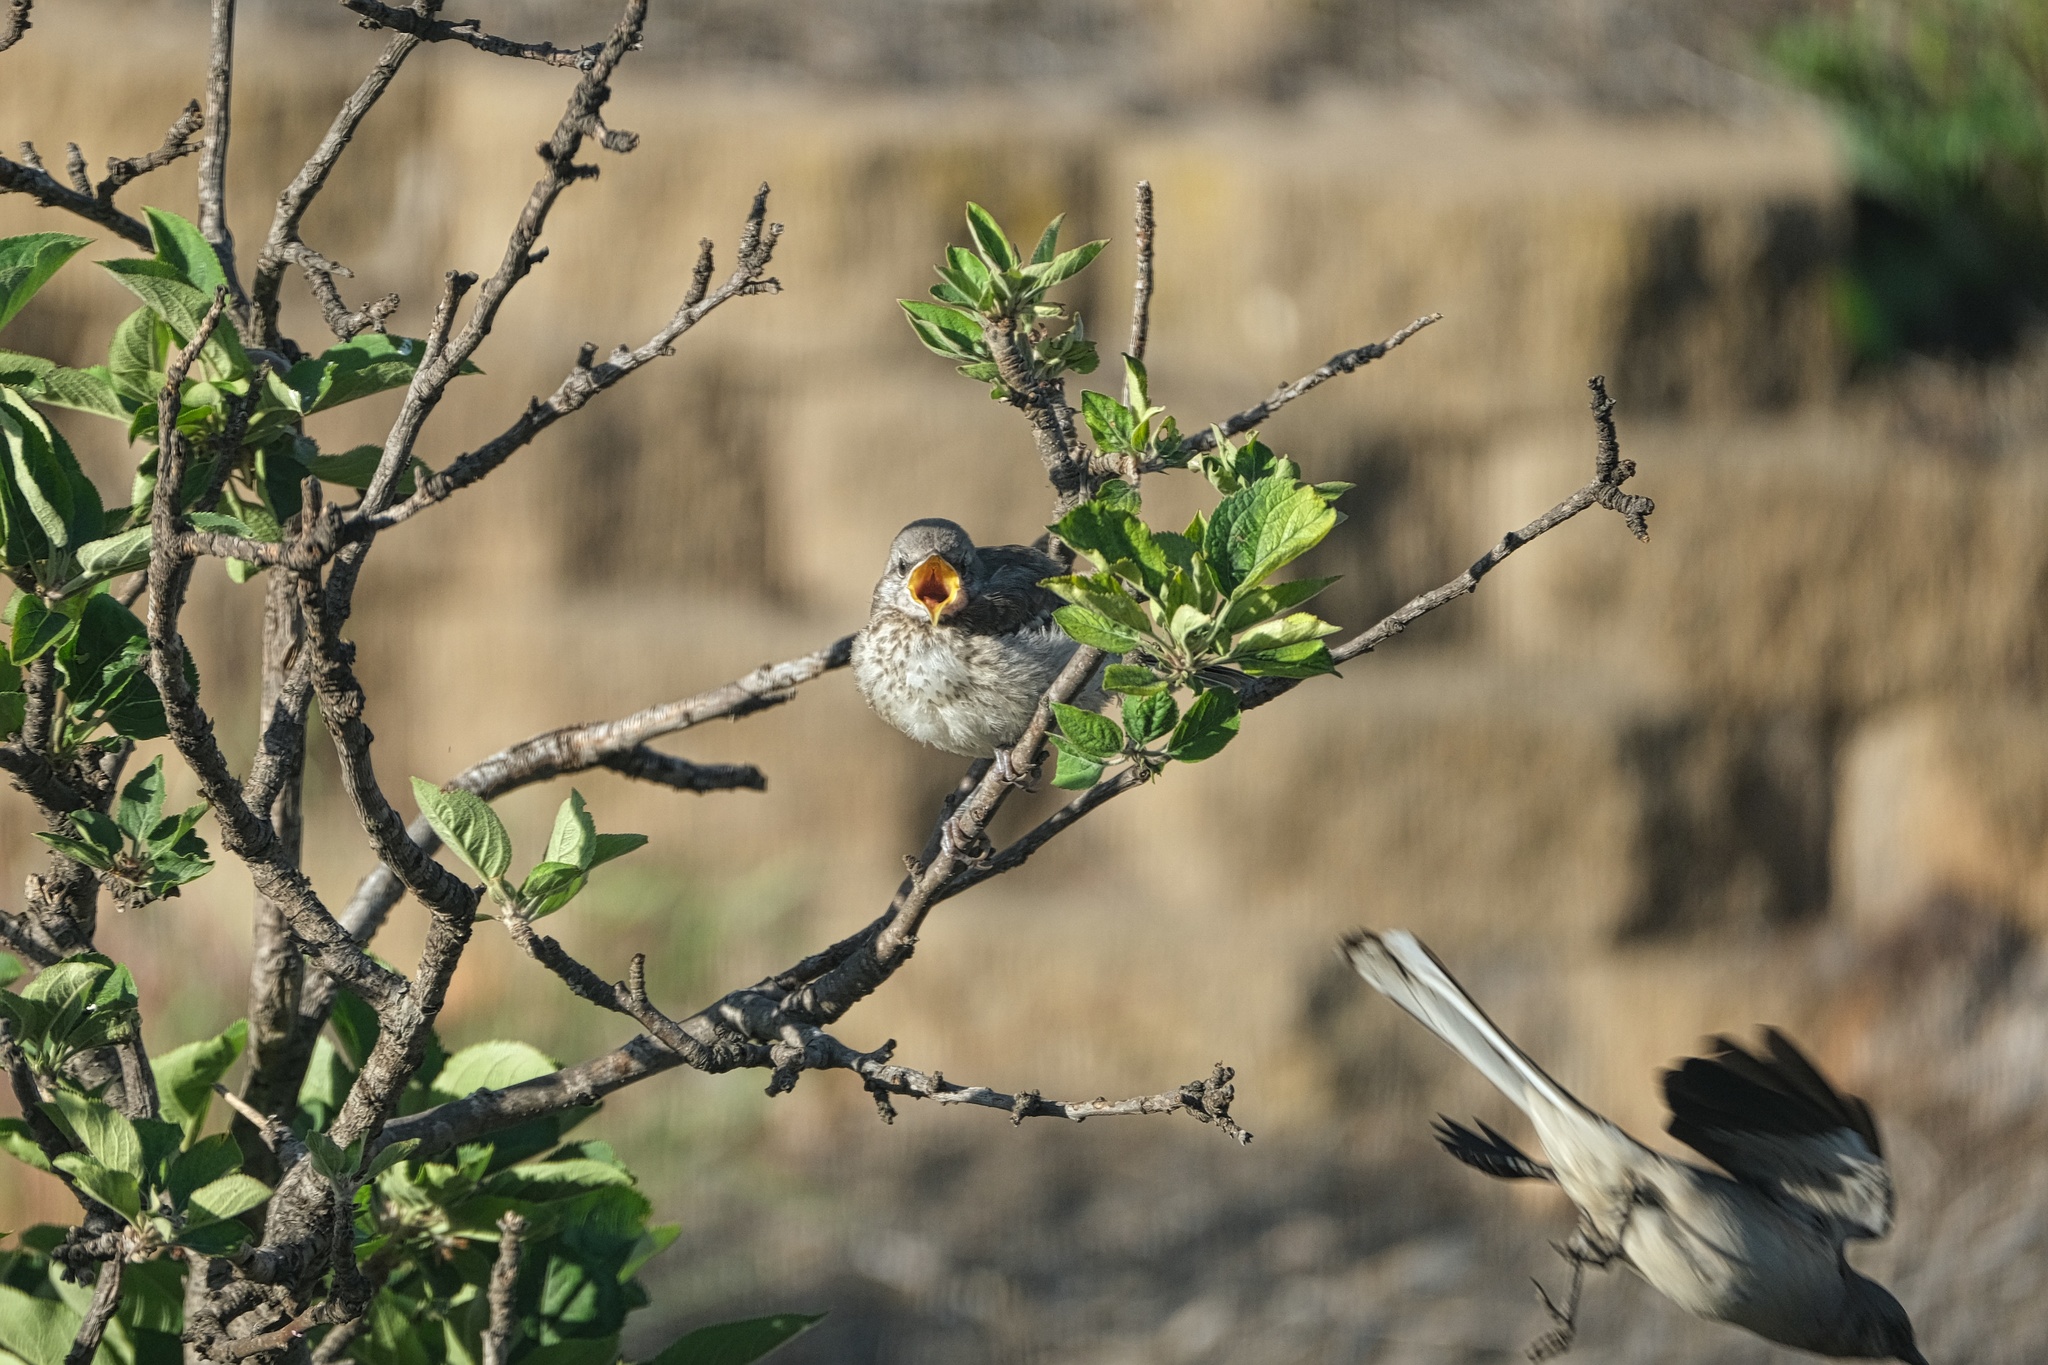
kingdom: Animalia
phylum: Chordata
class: Aves
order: Passeriformes
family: Mimidae
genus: Mimus
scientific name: Mimus polyglottos
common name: Northern mockingbird
